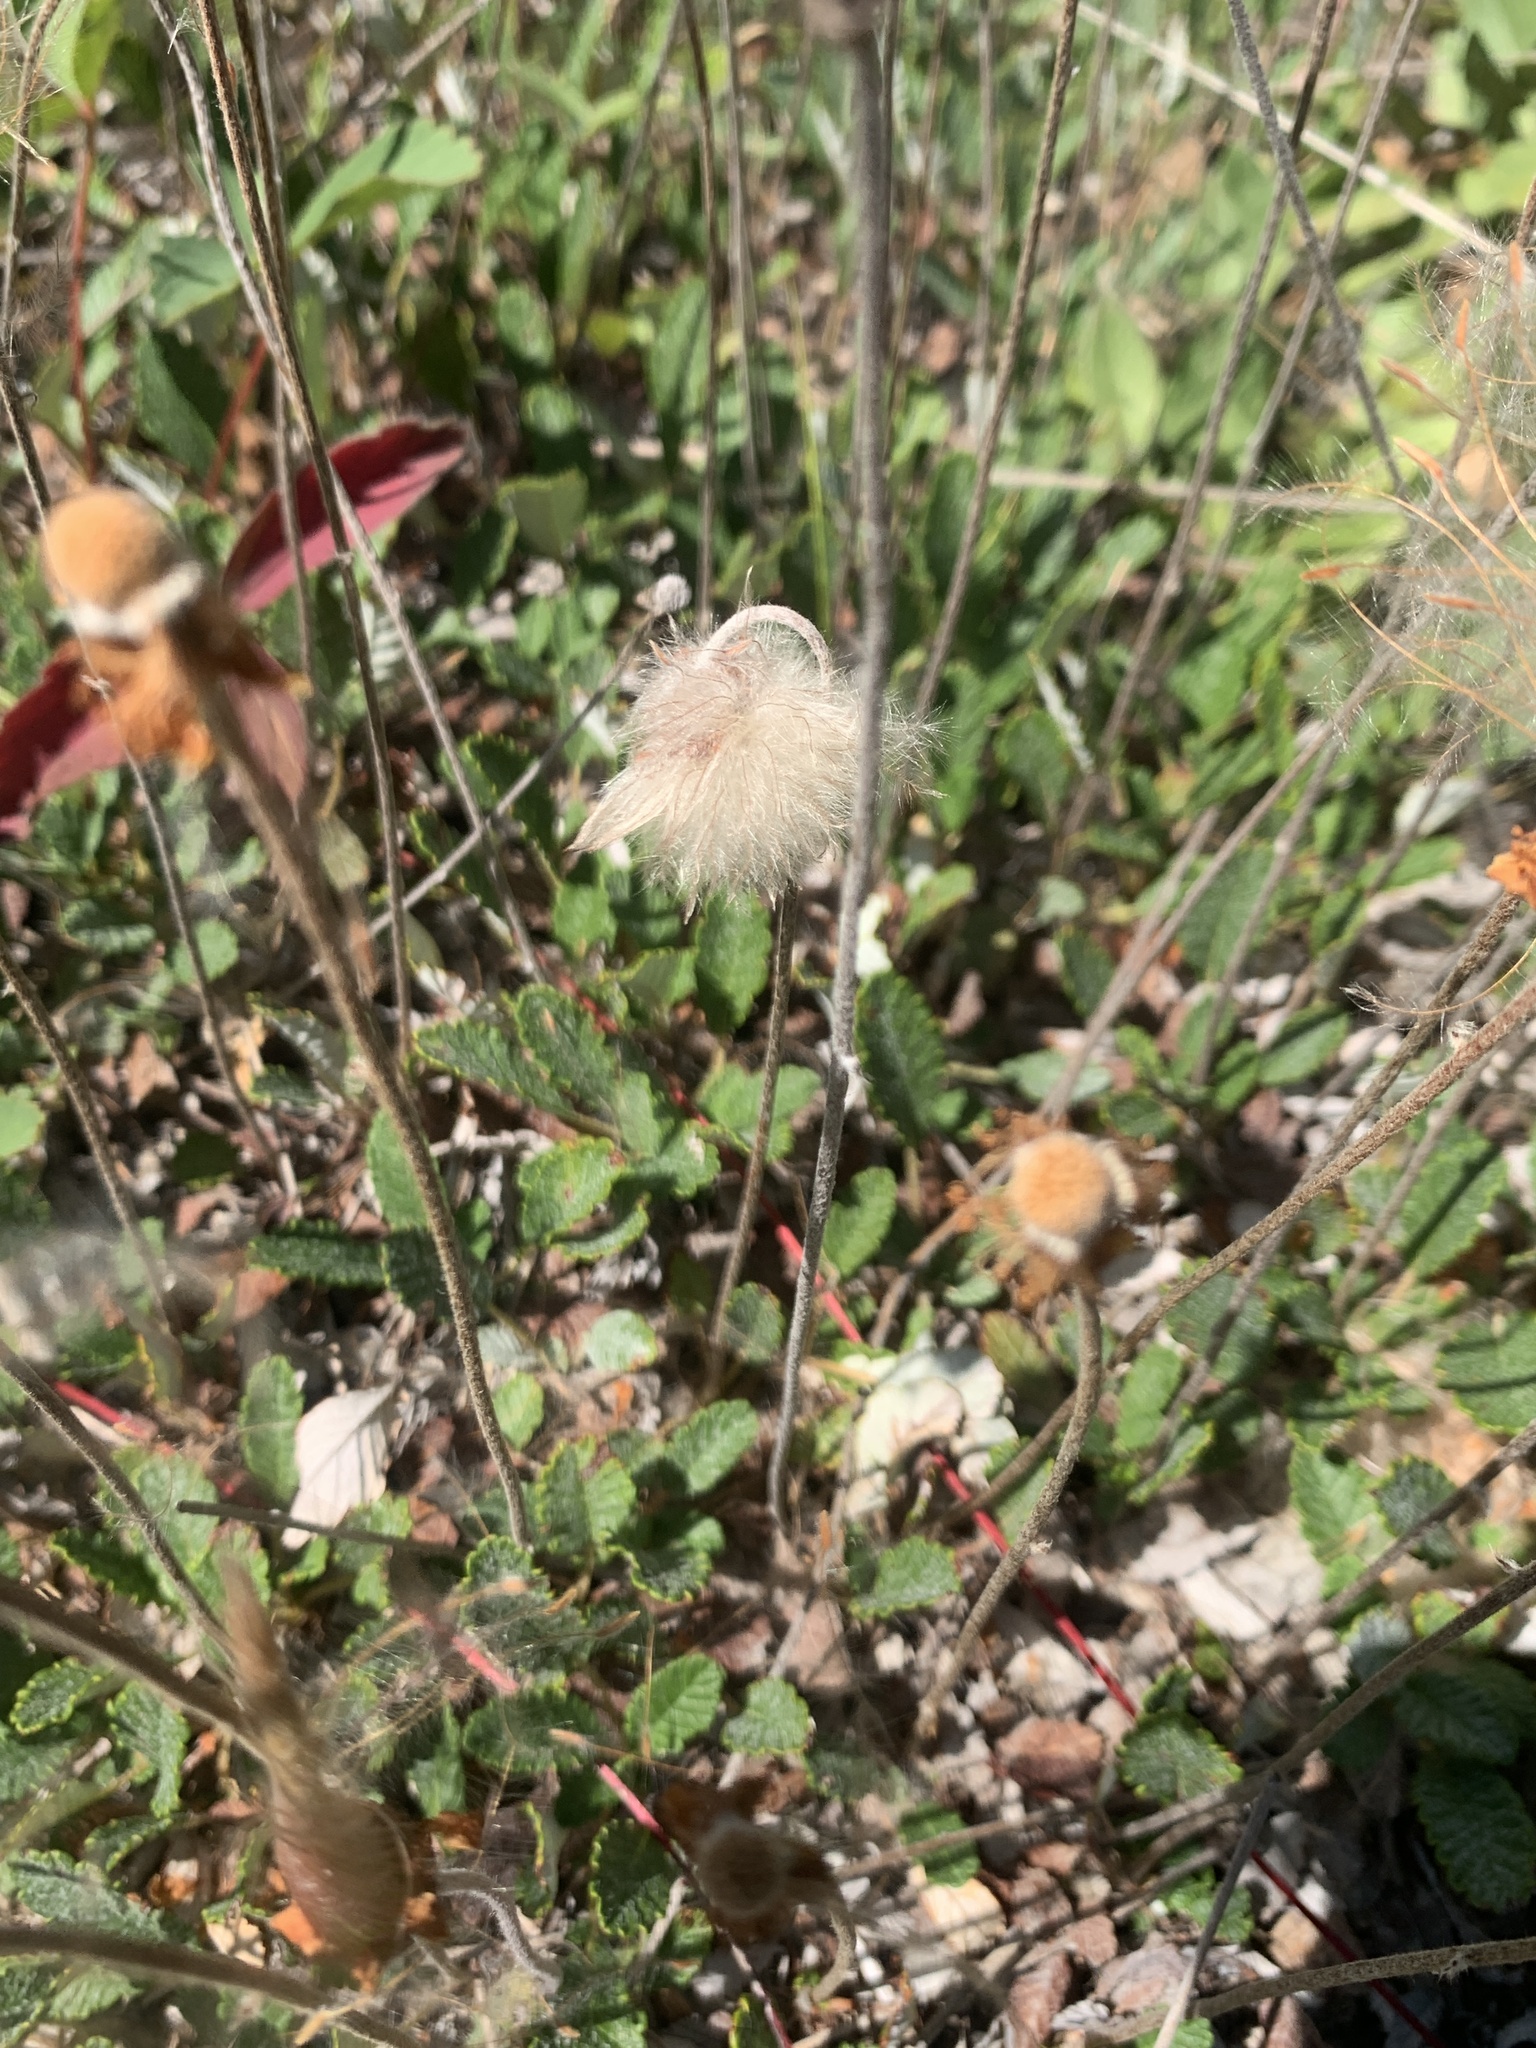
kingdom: Plantae
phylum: Tracheophyta
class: Magnoliopsida
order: Rosales
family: Rosaceae
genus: Dryas
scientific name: Dryas drummondii
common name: Drummond's dryad
